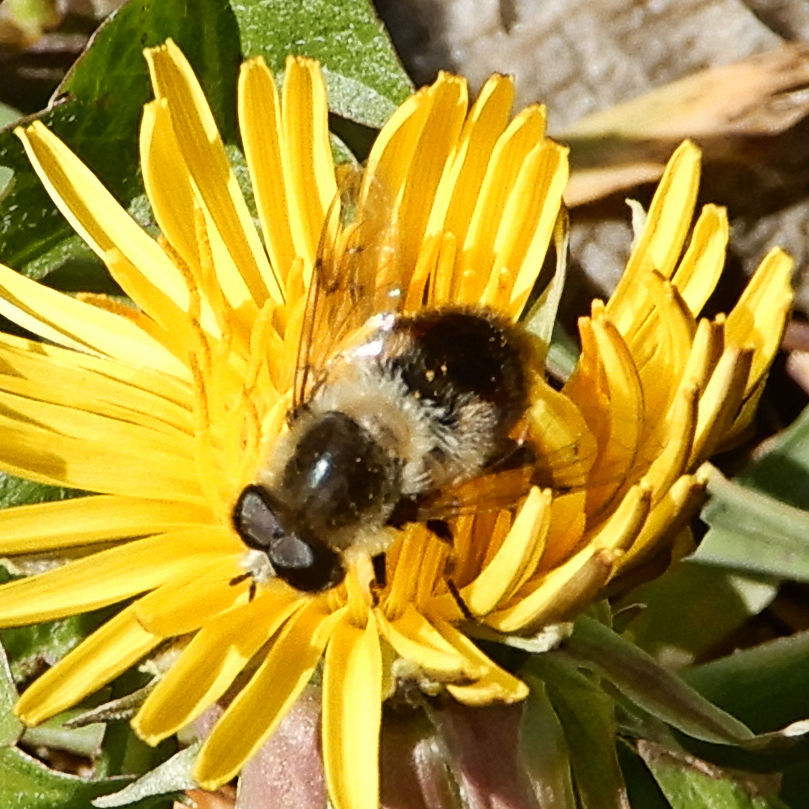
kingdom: Animalia
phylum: Arthropoda
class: Insecta
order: Diptera
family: Syrphidae
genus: Eristalis
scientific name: Eristalis anthophorina
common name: Orange-spotted drone fly
